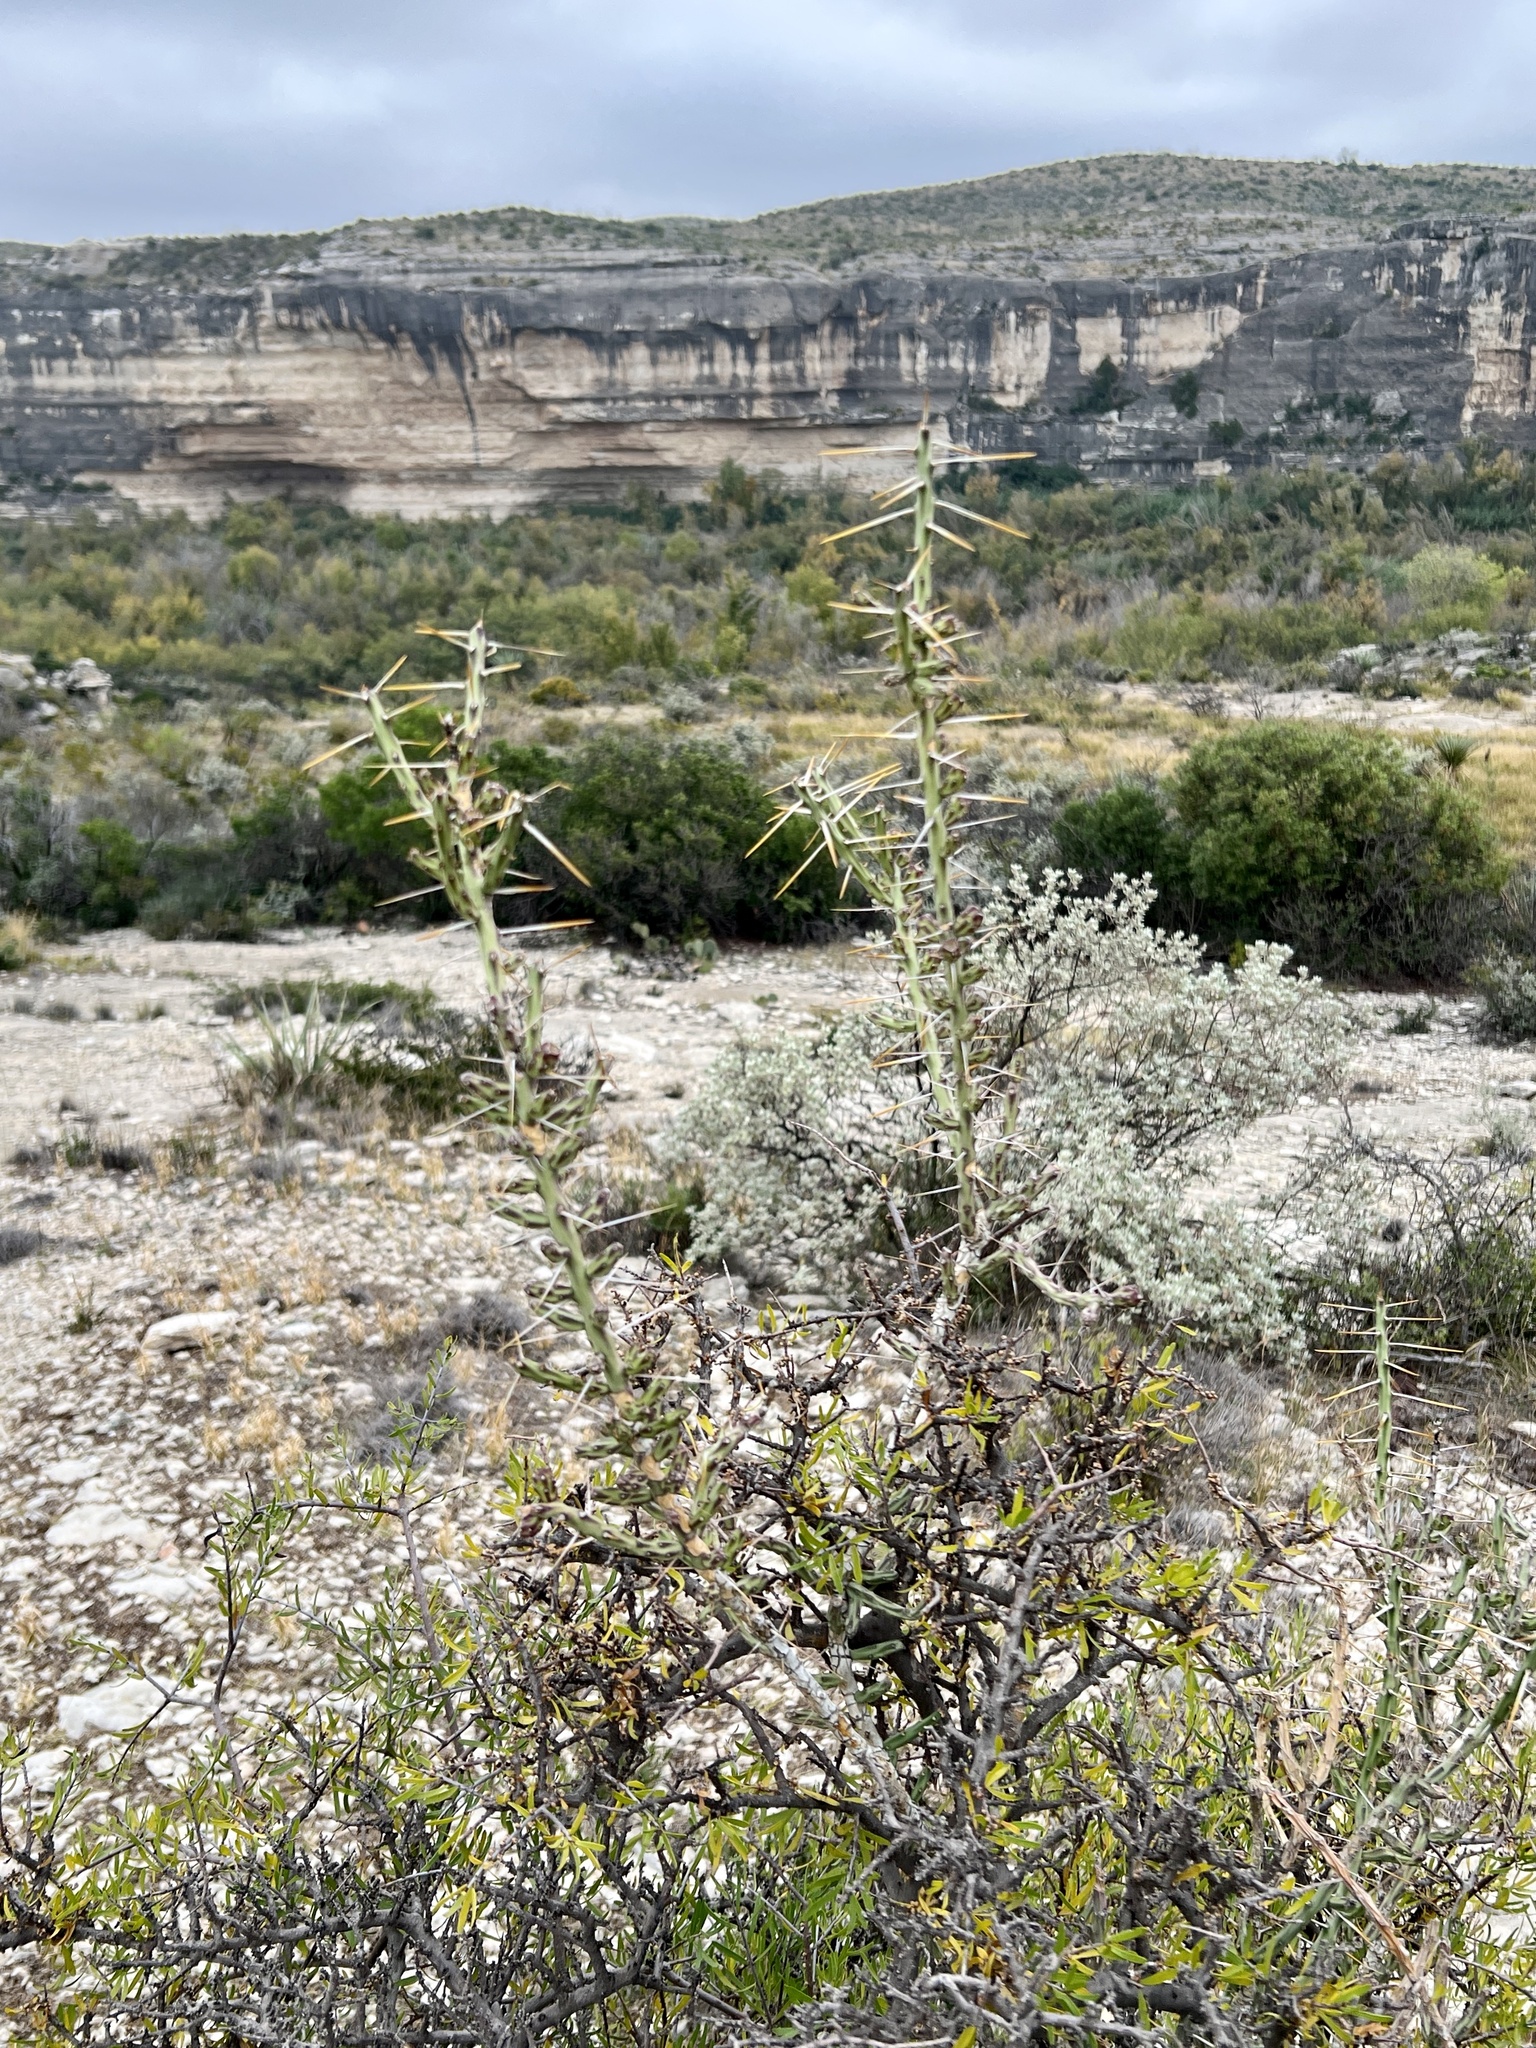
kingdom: Plantae
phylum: Tracheophyta
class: Magnoliopsida
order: Caryophyllales
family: Cactaceae
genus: Cylindropuntia
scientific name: Cylindropuntia leptocaulis
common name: Christmas cactus
